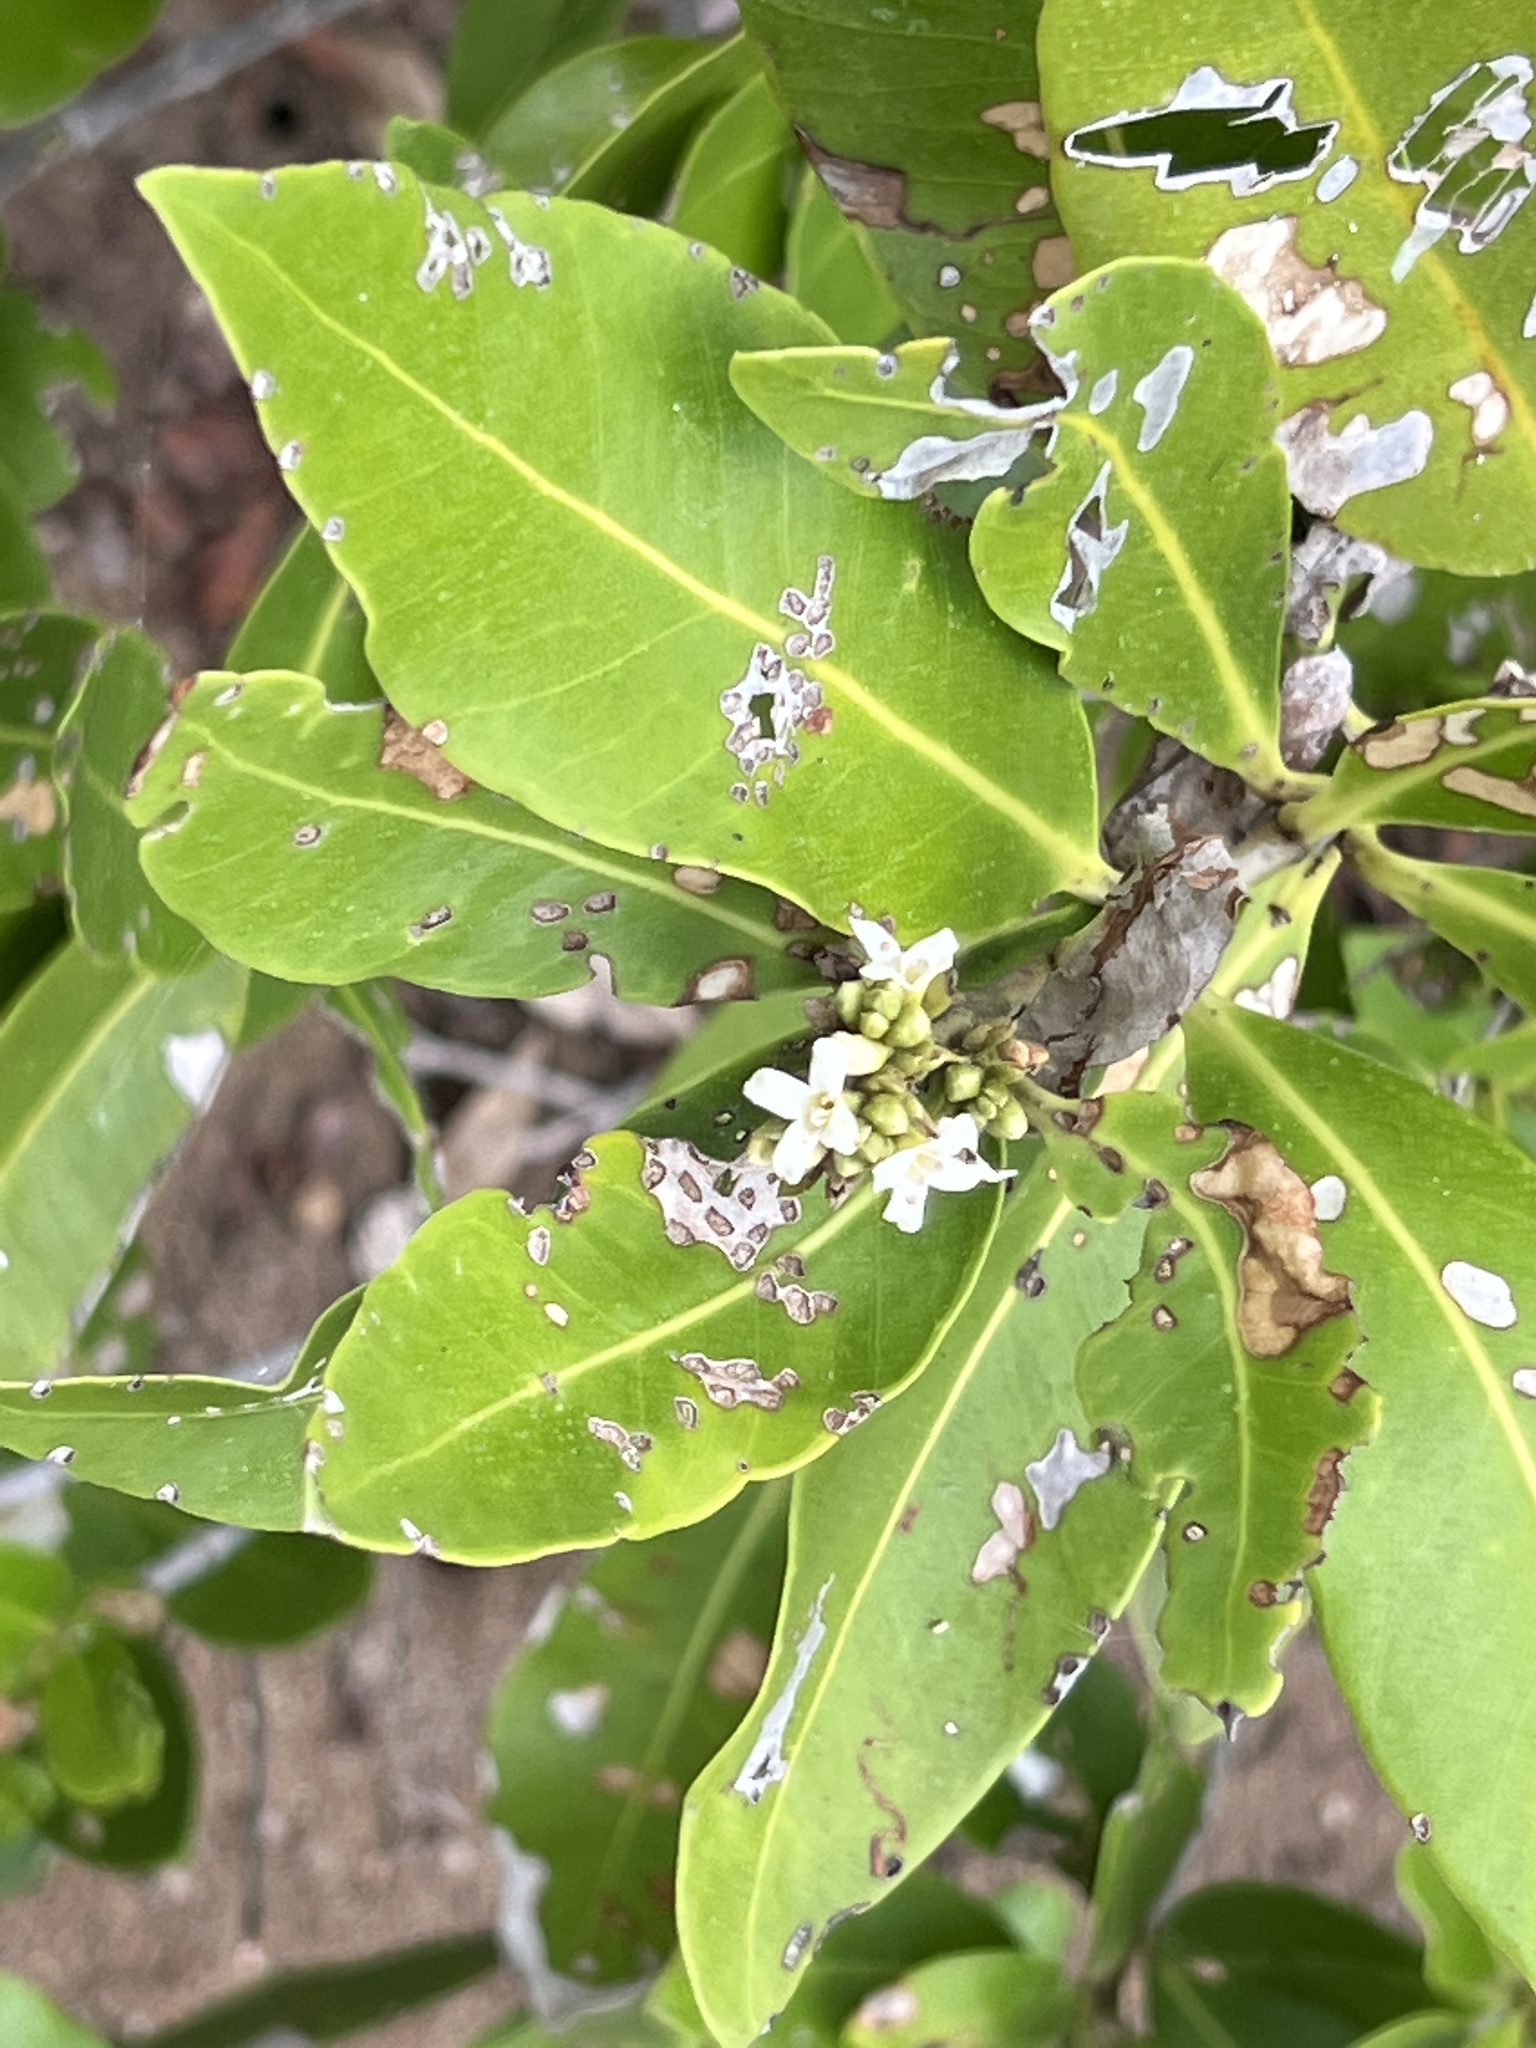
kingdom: Plantae
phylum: Tracheophyta
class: Magnoliopsida
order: Lamiales
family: Acanthaceae
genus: Avicennia
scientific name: Avicennia germinans
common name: Black mangrove
